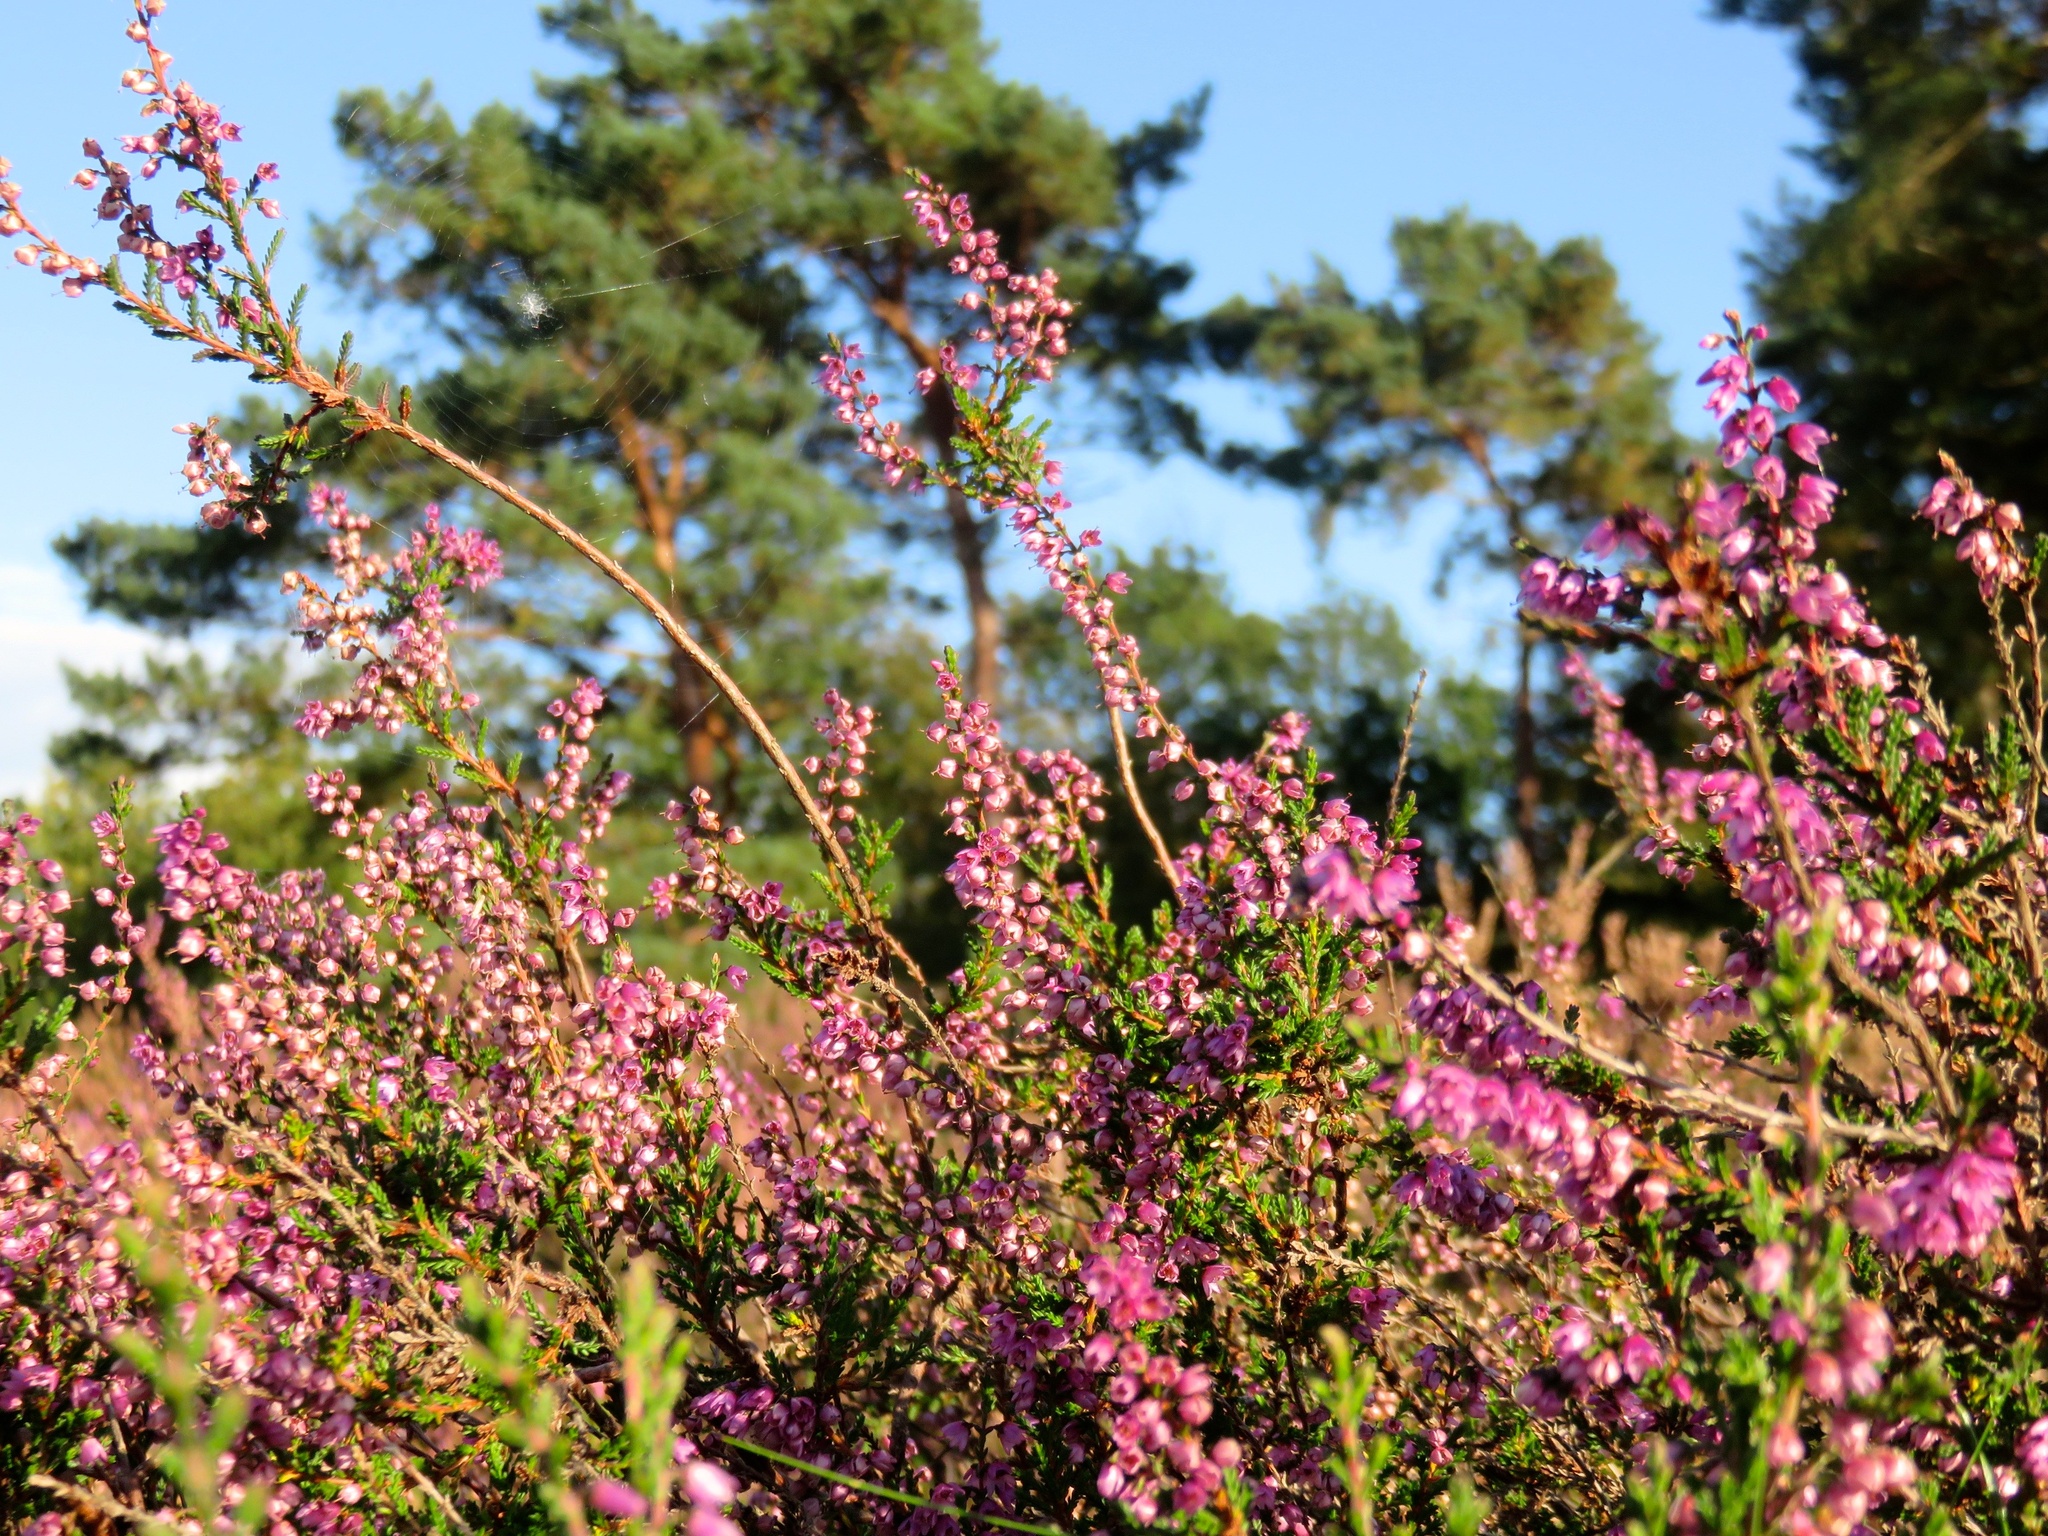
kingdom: Plantae
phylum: Tracheophyta
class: Magnoliopsida
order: Ericales
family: Ericaceae
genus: Calluna
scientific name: Calluna vulgaris
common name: Heather
